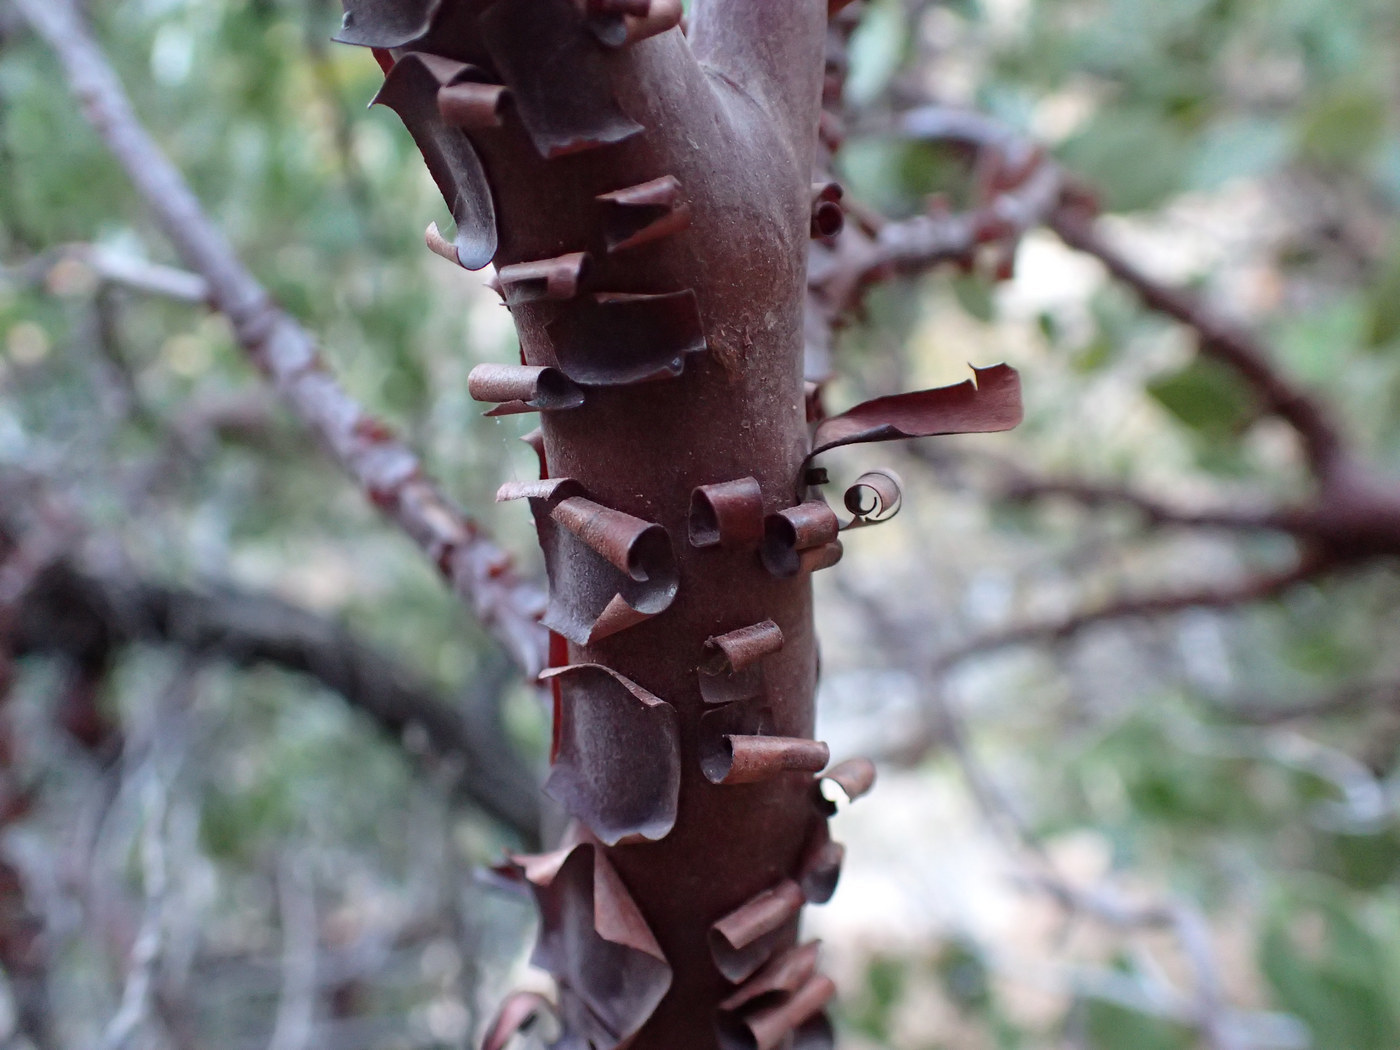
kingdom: Plantae
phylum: Tracheophyta
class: Magnoliopsida
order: Ericales
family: Ericaceae
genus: Arctostaphylos
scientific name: Arctostaphylos patula
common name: Green-leaf manzanita
